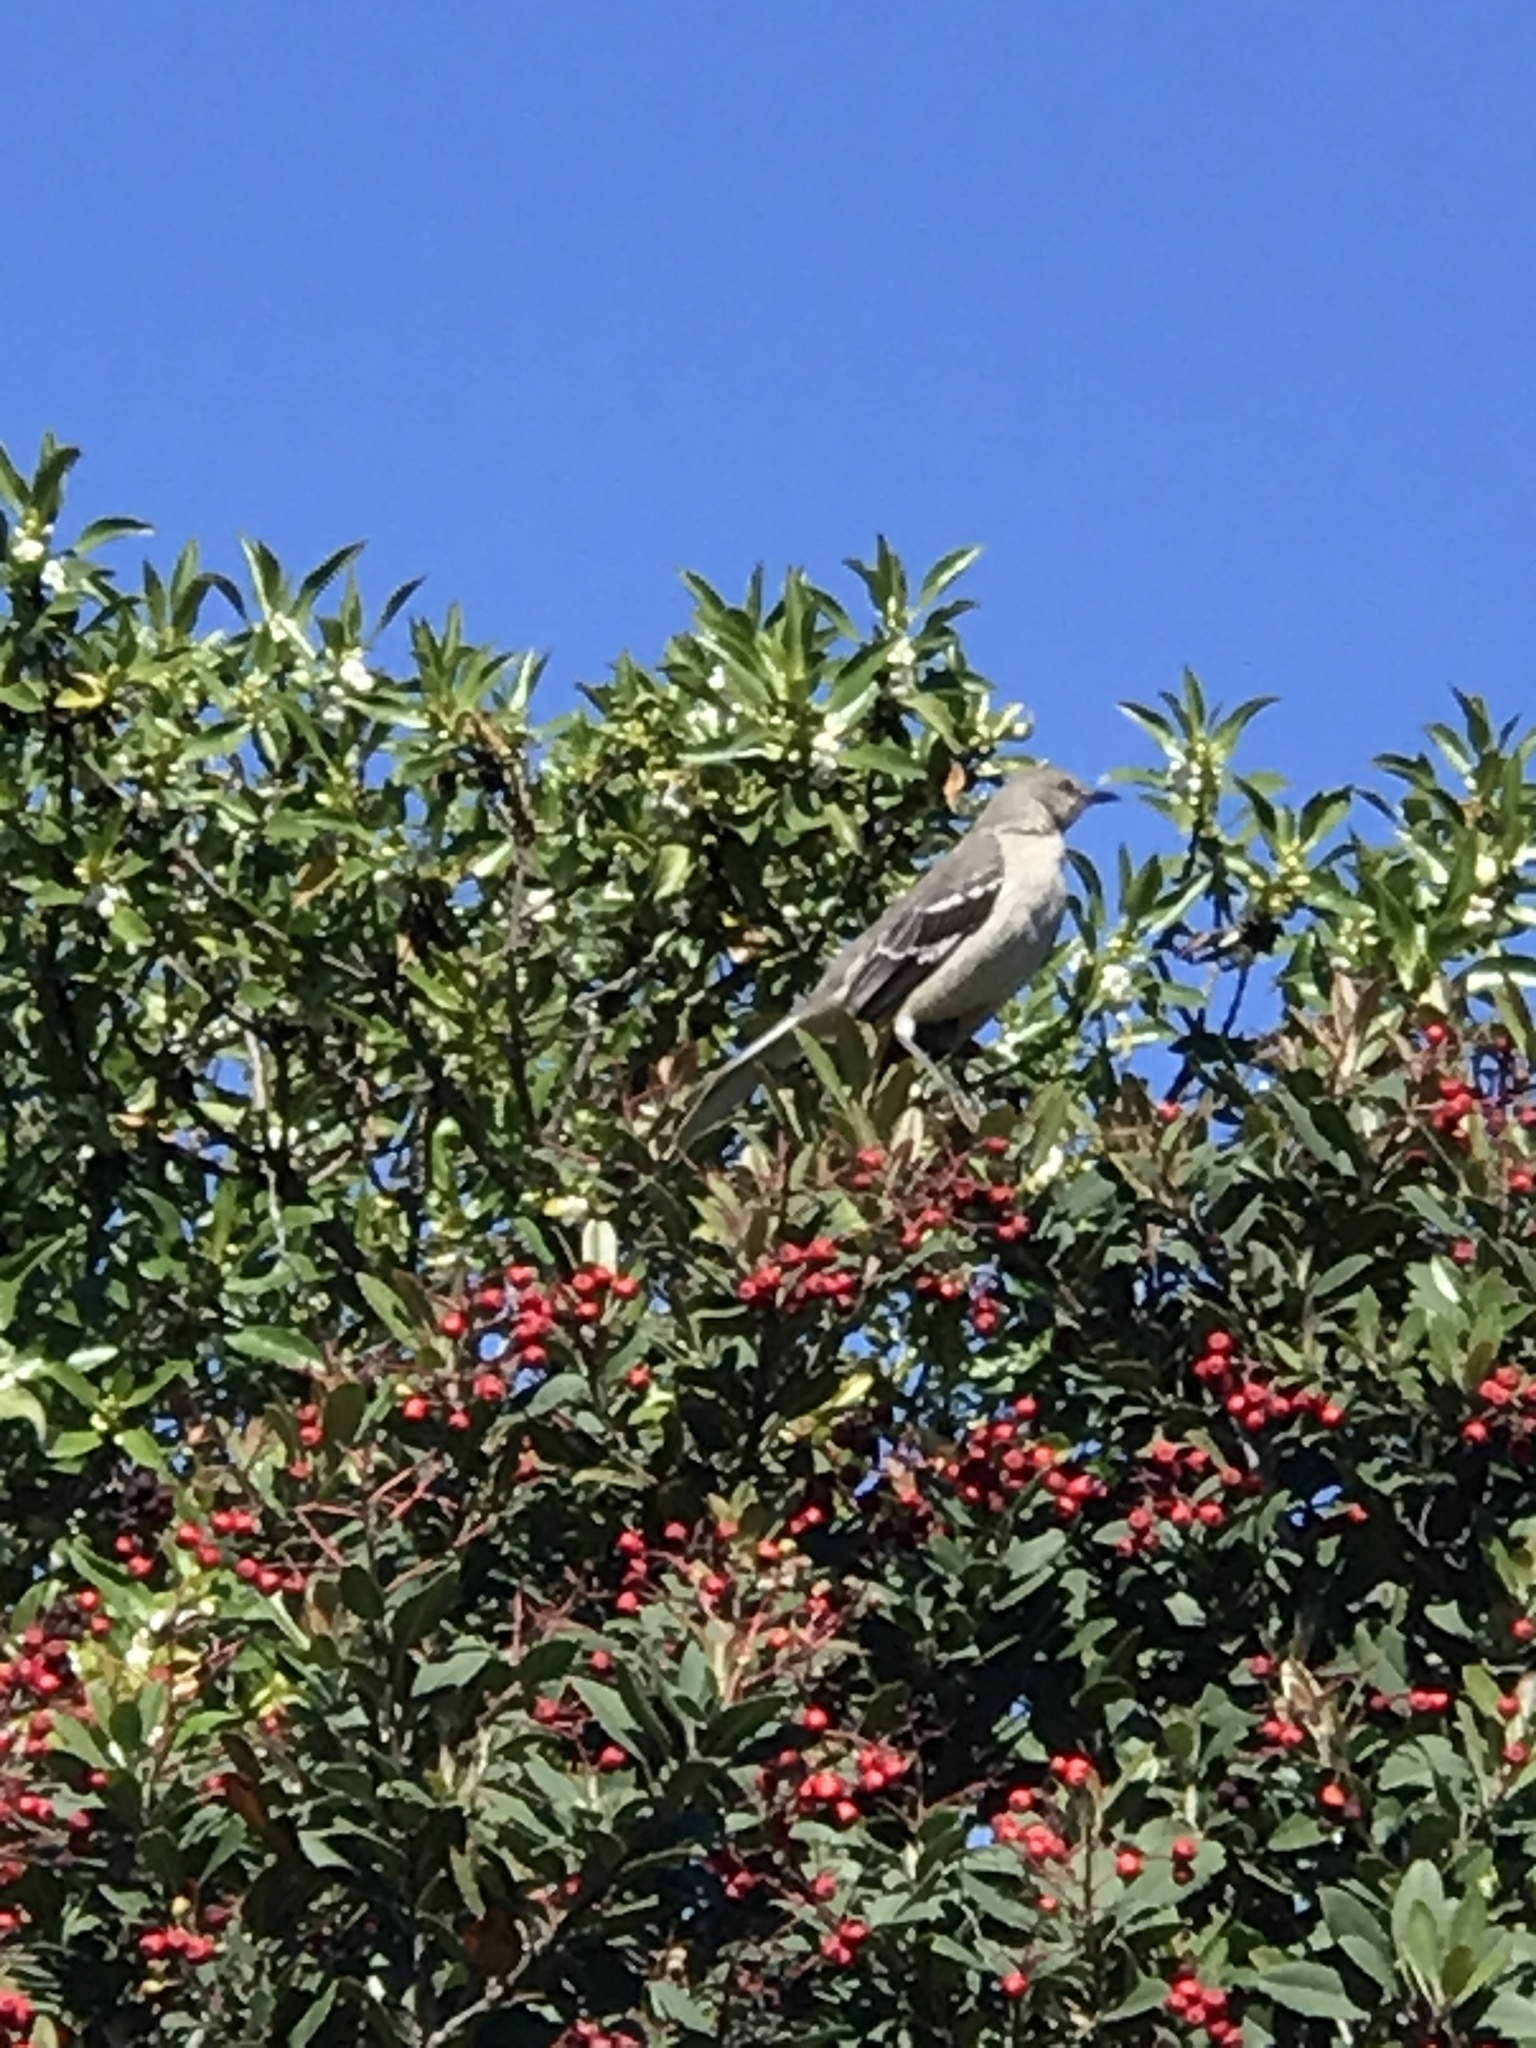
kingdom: Animalia
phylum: Chordata
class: Aves
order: Passeriformes
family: Mimidae
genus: Mimus
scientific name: Mimus polyglottos
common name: Northern mockingbird
